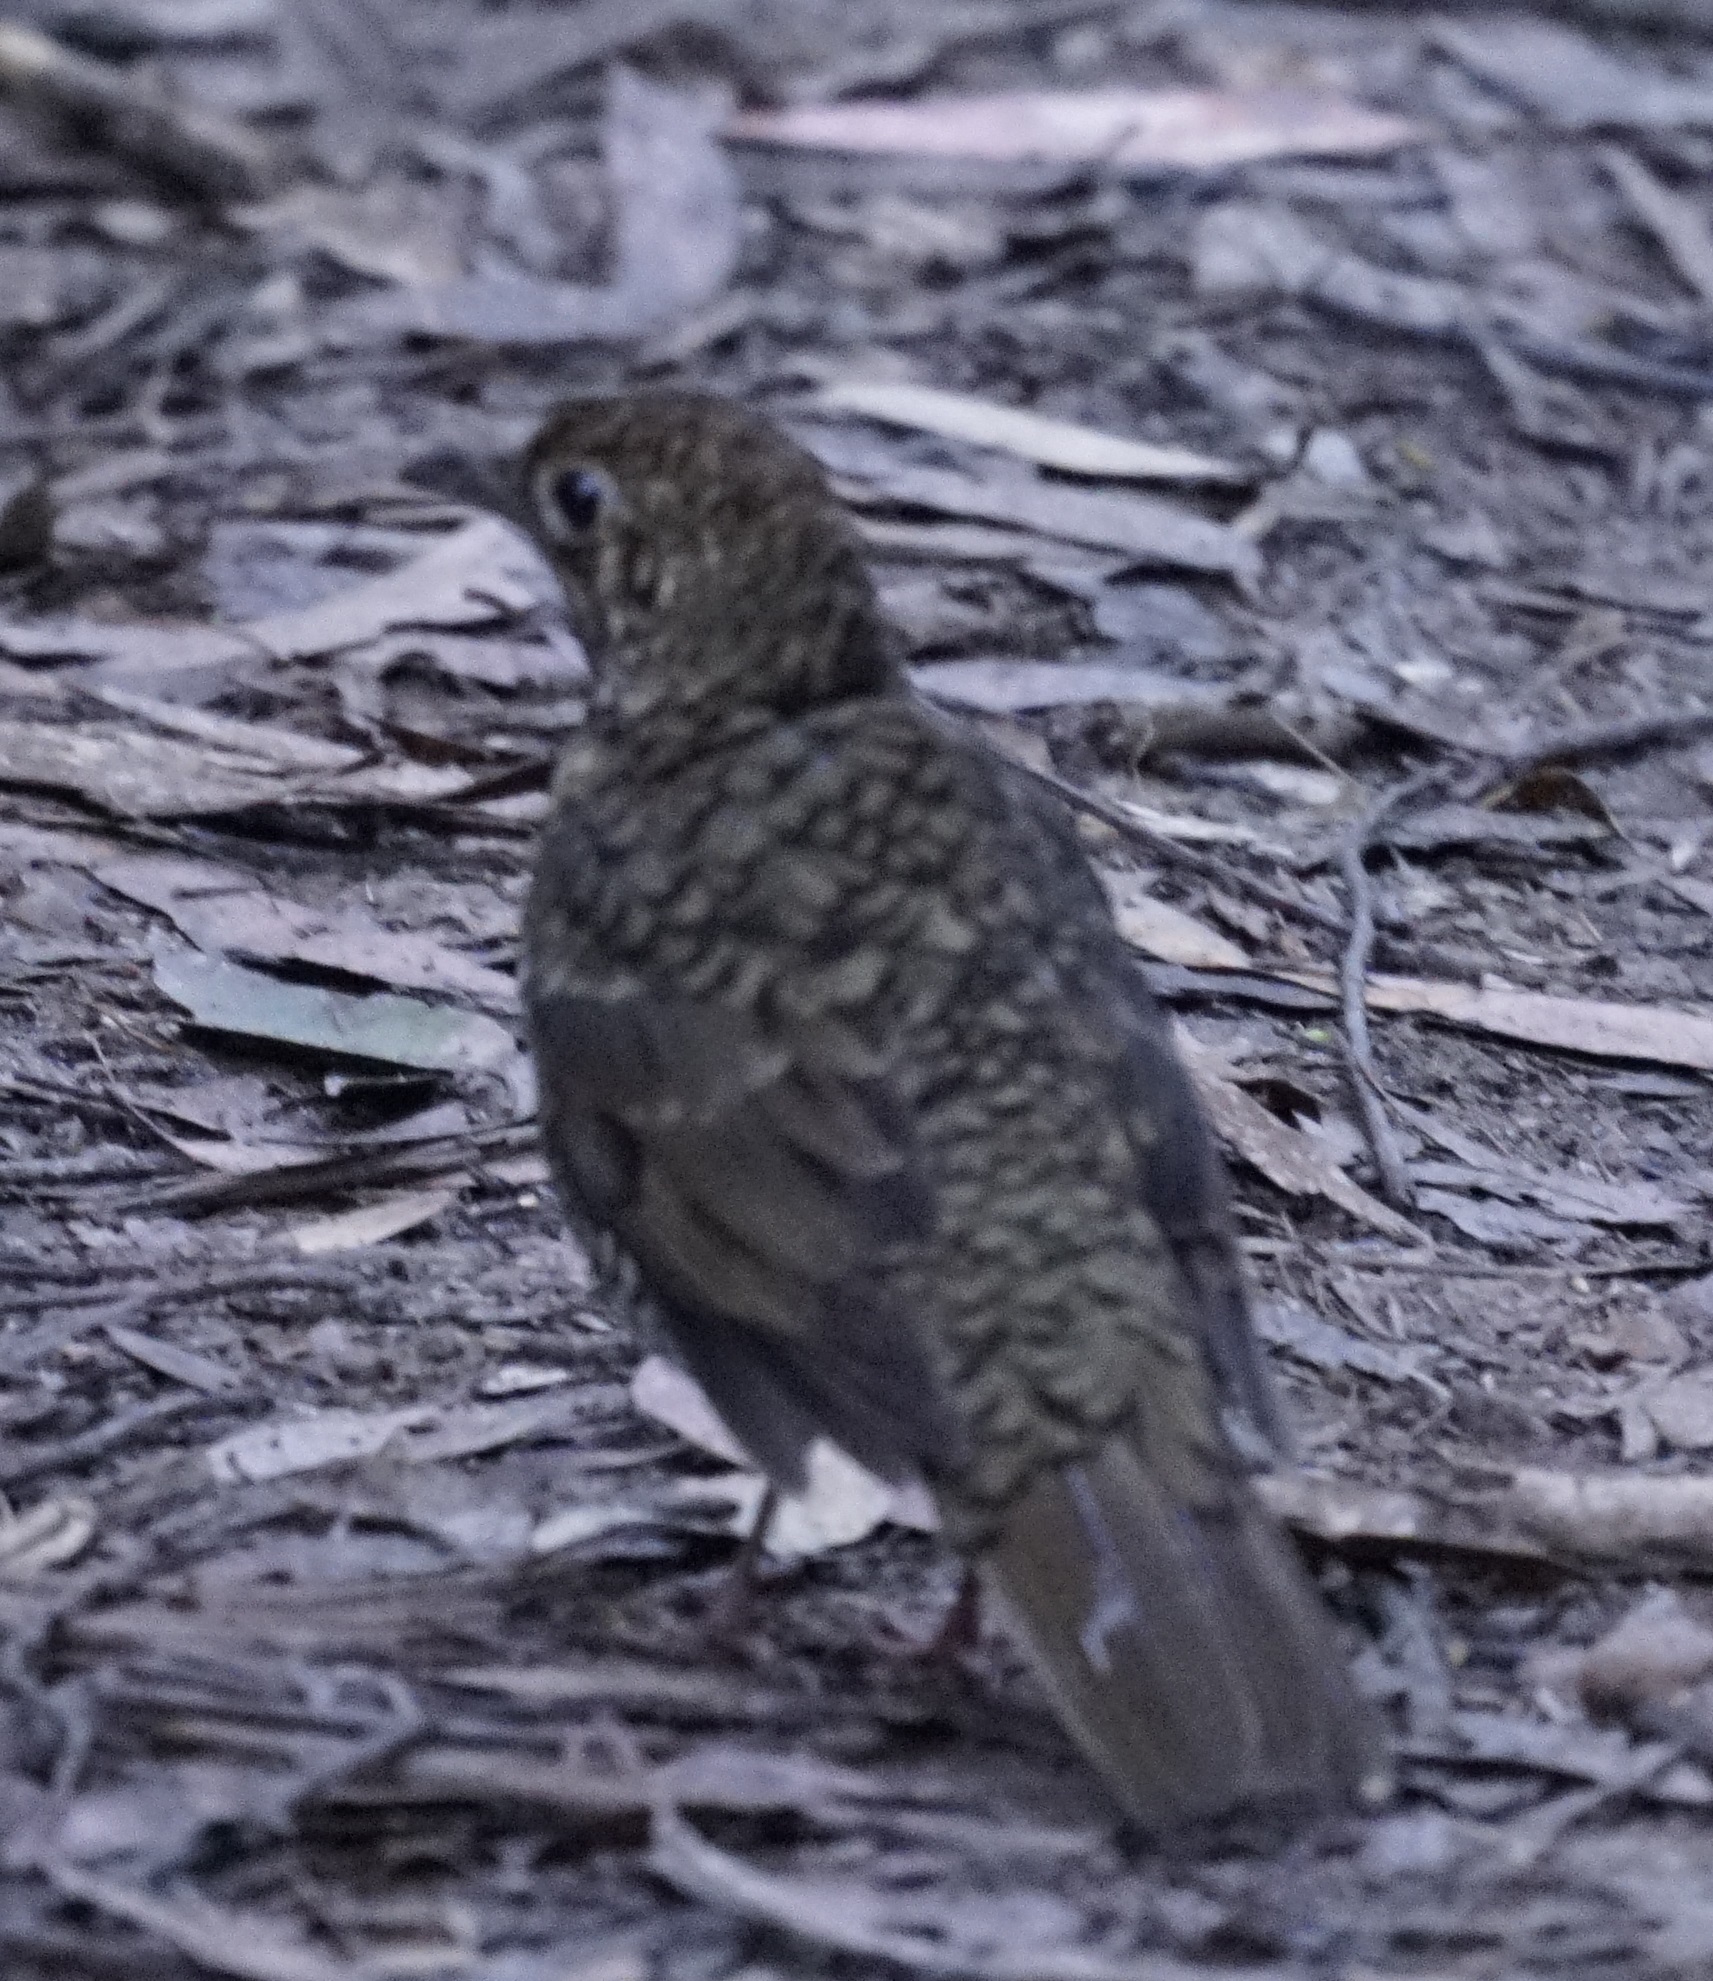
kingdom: Animalia
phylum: Chordata
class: Aves
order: Passeriformes
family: Turdidae
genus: Zoothera
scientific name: Zoothera lunulata
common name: Bassian thrush
